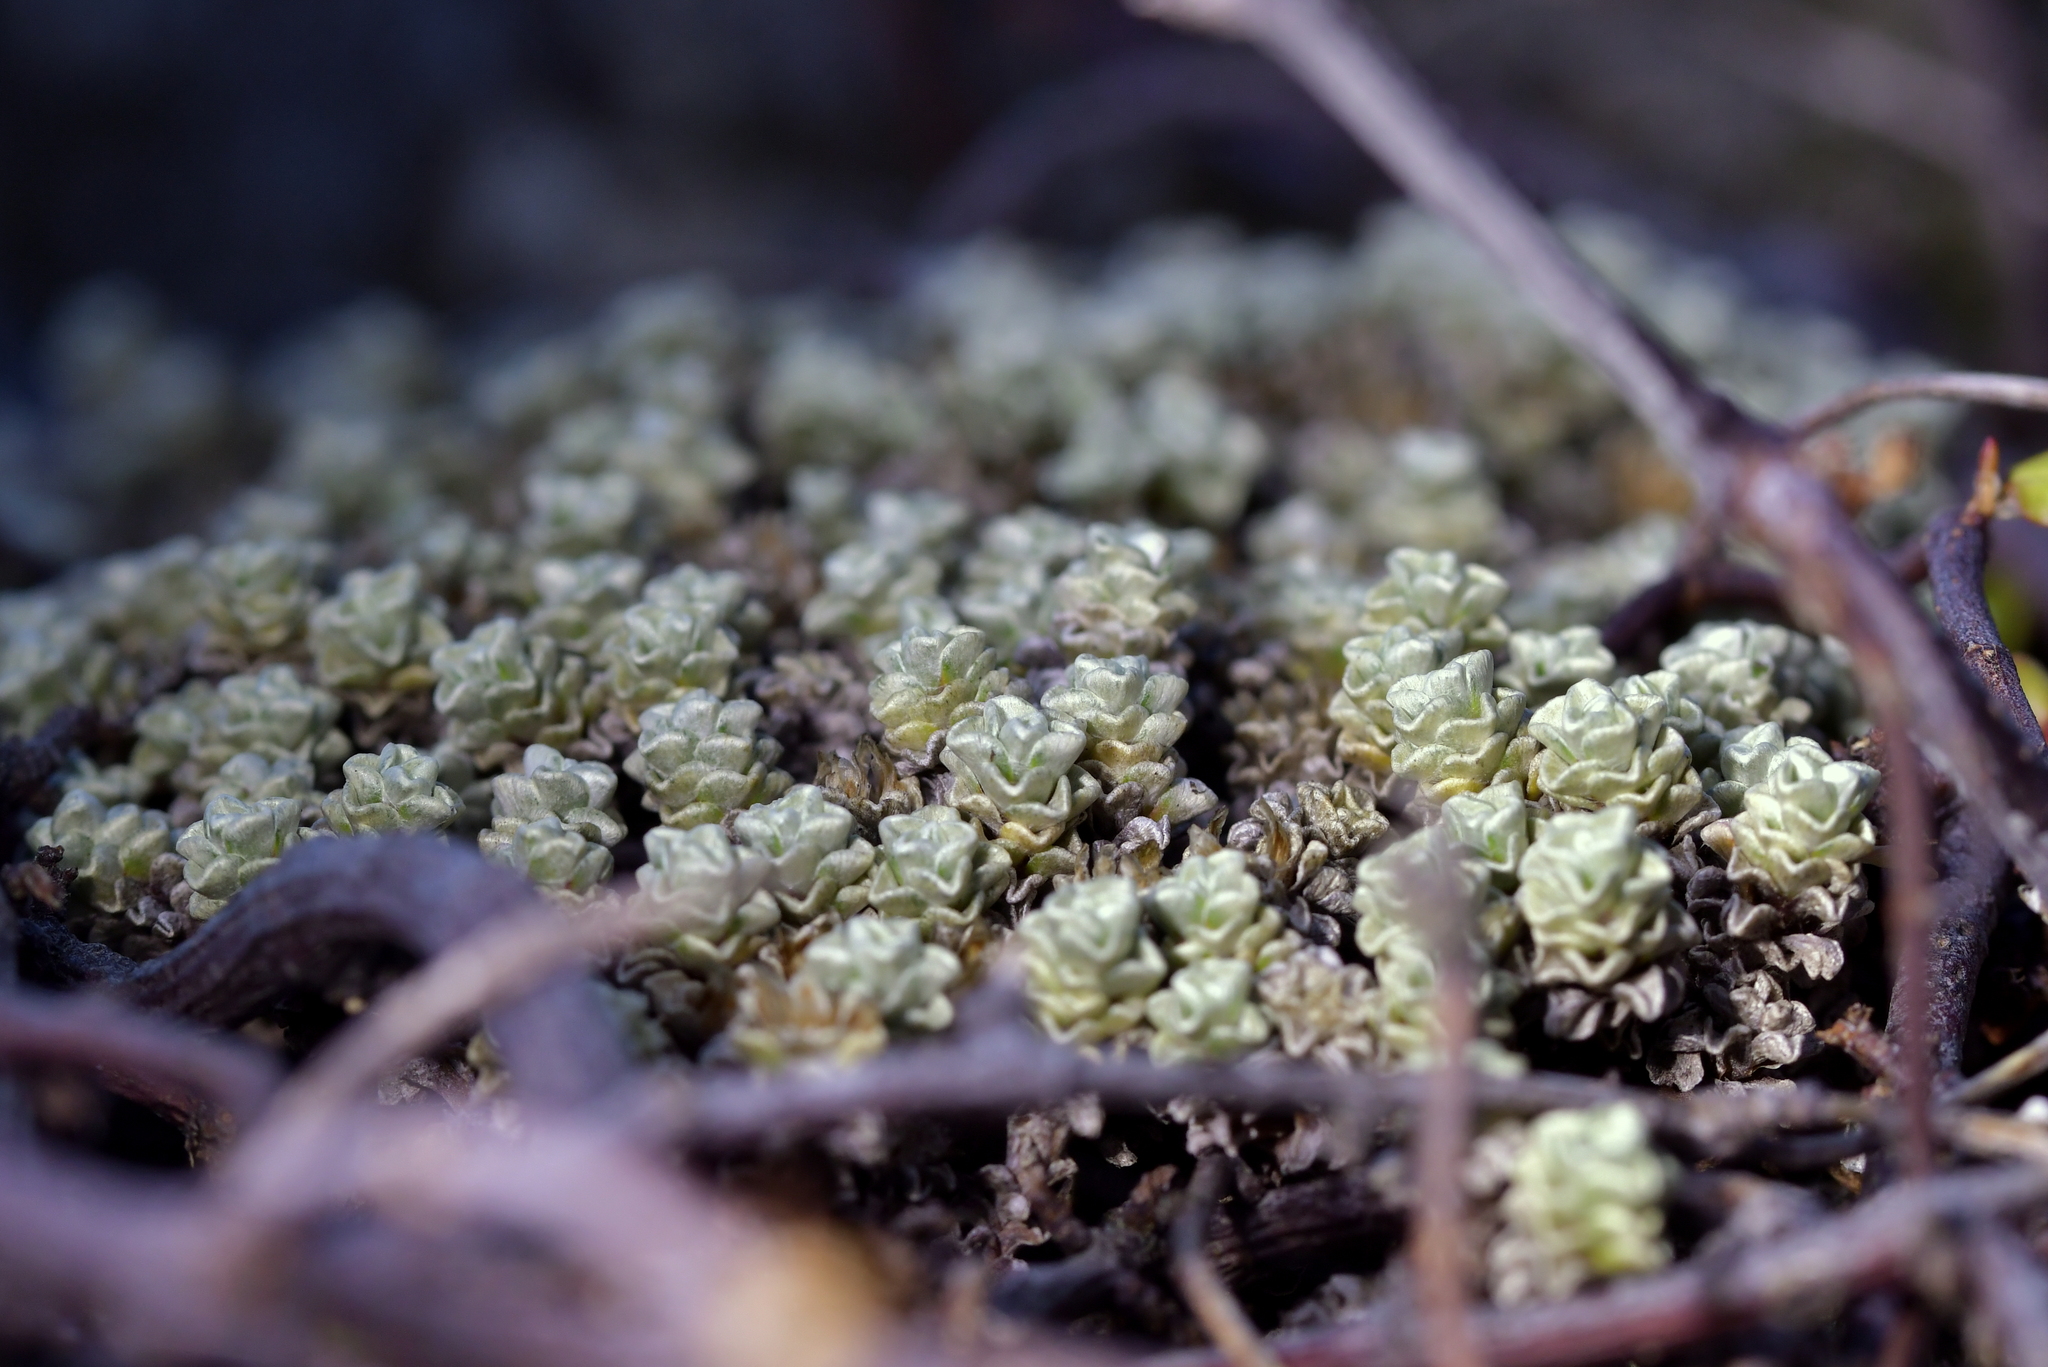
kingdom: Plantae
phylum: Tracheophyta
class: Magnoliopsida
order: Asterales
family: Asteraceae
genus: Raoulia
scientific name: Raoulia hookeri
